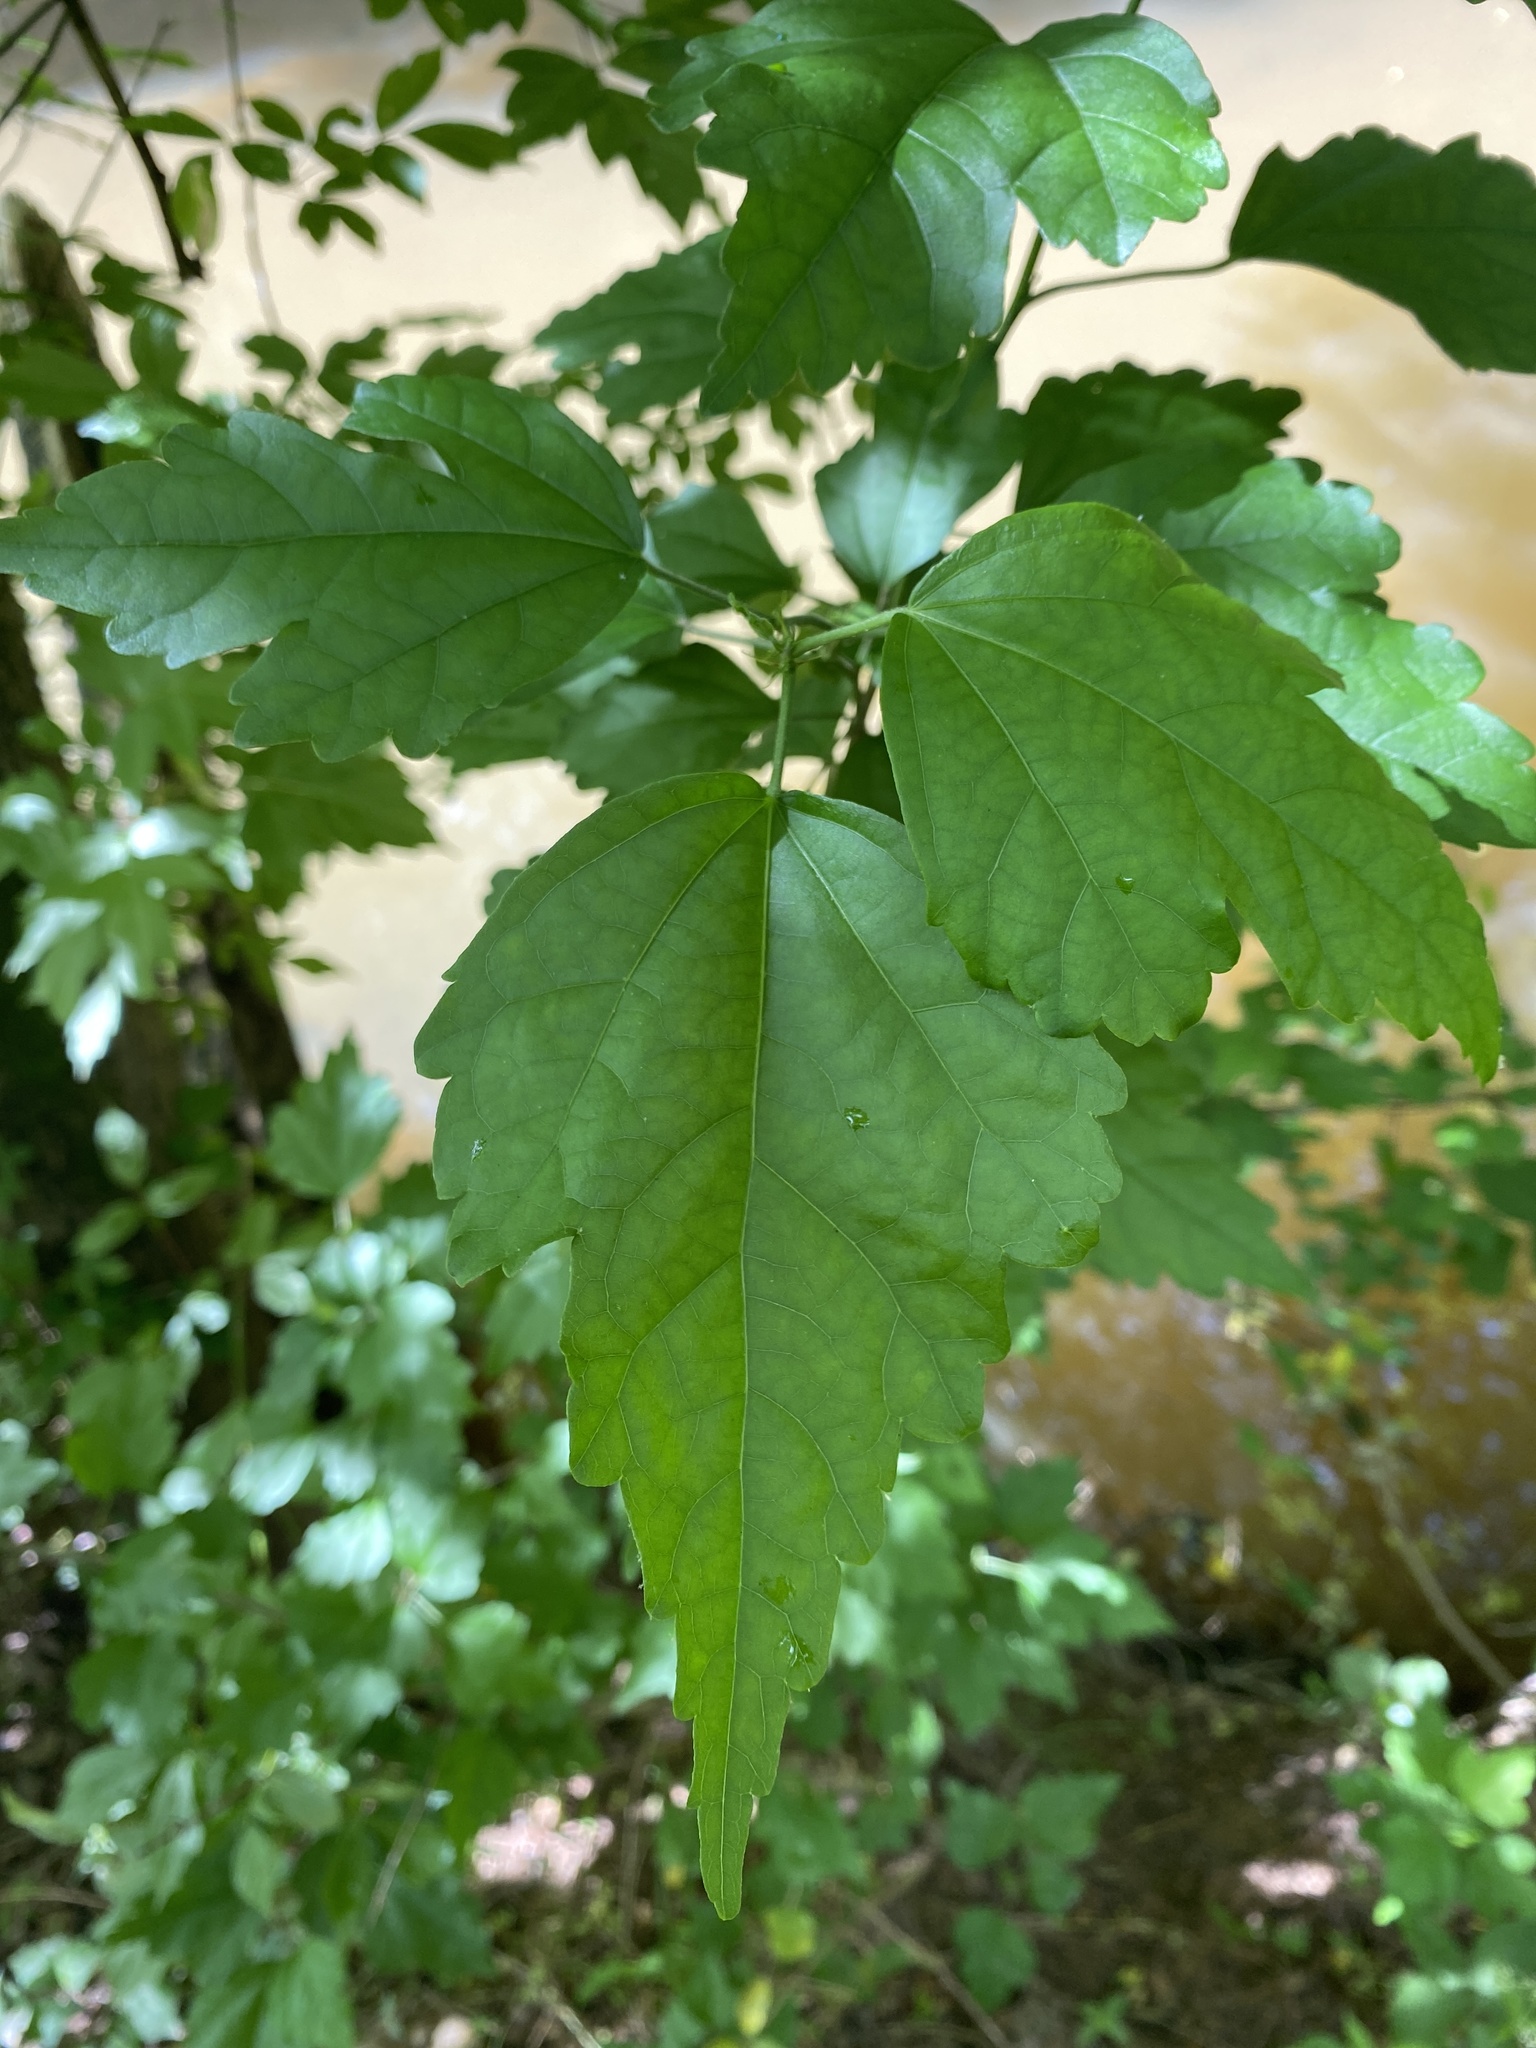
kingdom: Plantae
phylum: Tracheophyta
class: Magnoliopsida
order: Malvales
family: Malvaceae
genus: Hibiscus
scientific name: Hibiscus syriacus
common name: Syrian ketmia
